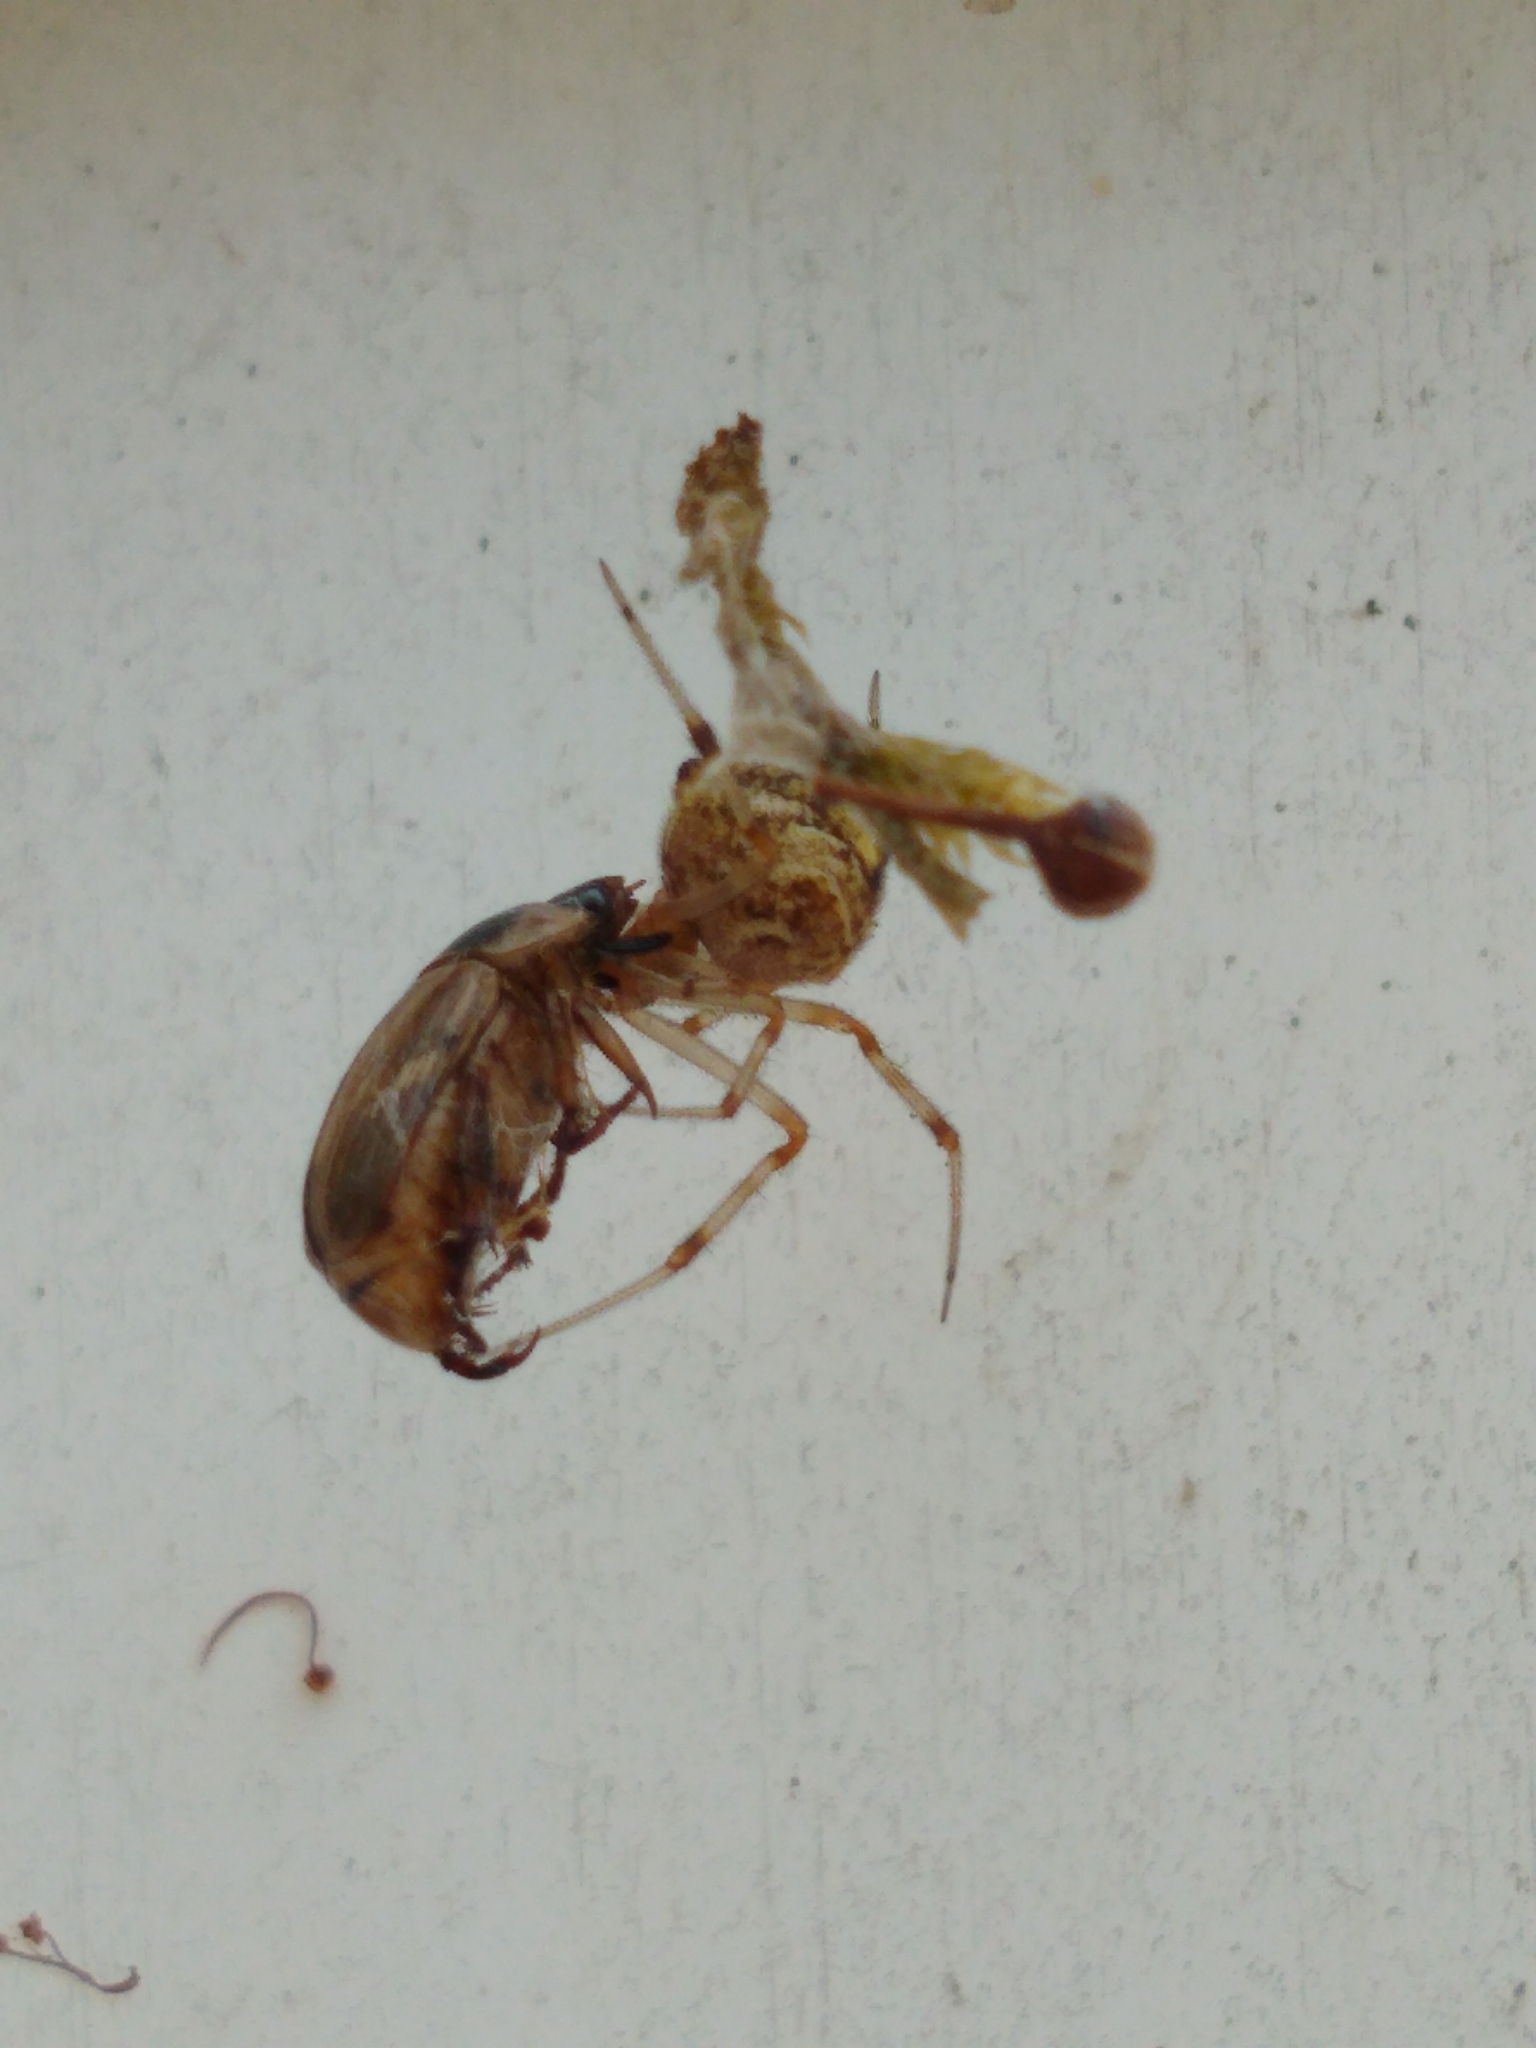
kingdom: Animalia
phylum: Arthropoda
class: Insecta
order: Coleoptera
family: Scarabaeidae
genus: Exomala
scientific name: Exomala orientalis
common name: Oriental beetle
